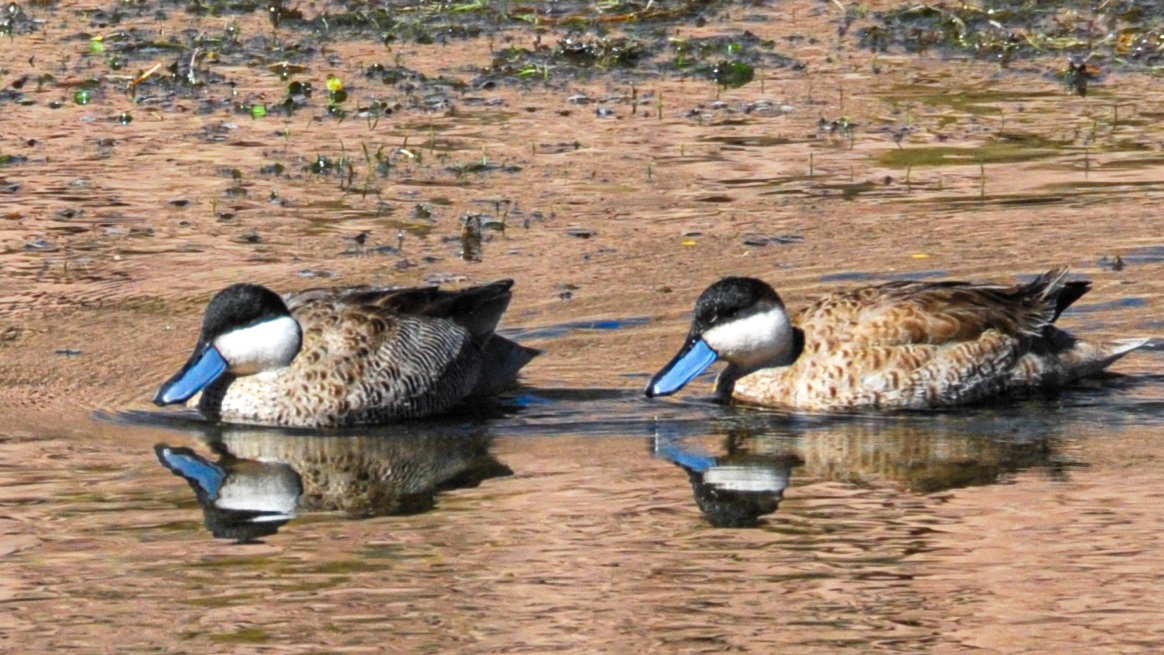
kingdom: Animalia
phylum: Chordata
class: Aves
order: Anseriformes
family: Anatidae
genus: Spatula
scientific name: Spatula puna
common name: Puna teal
